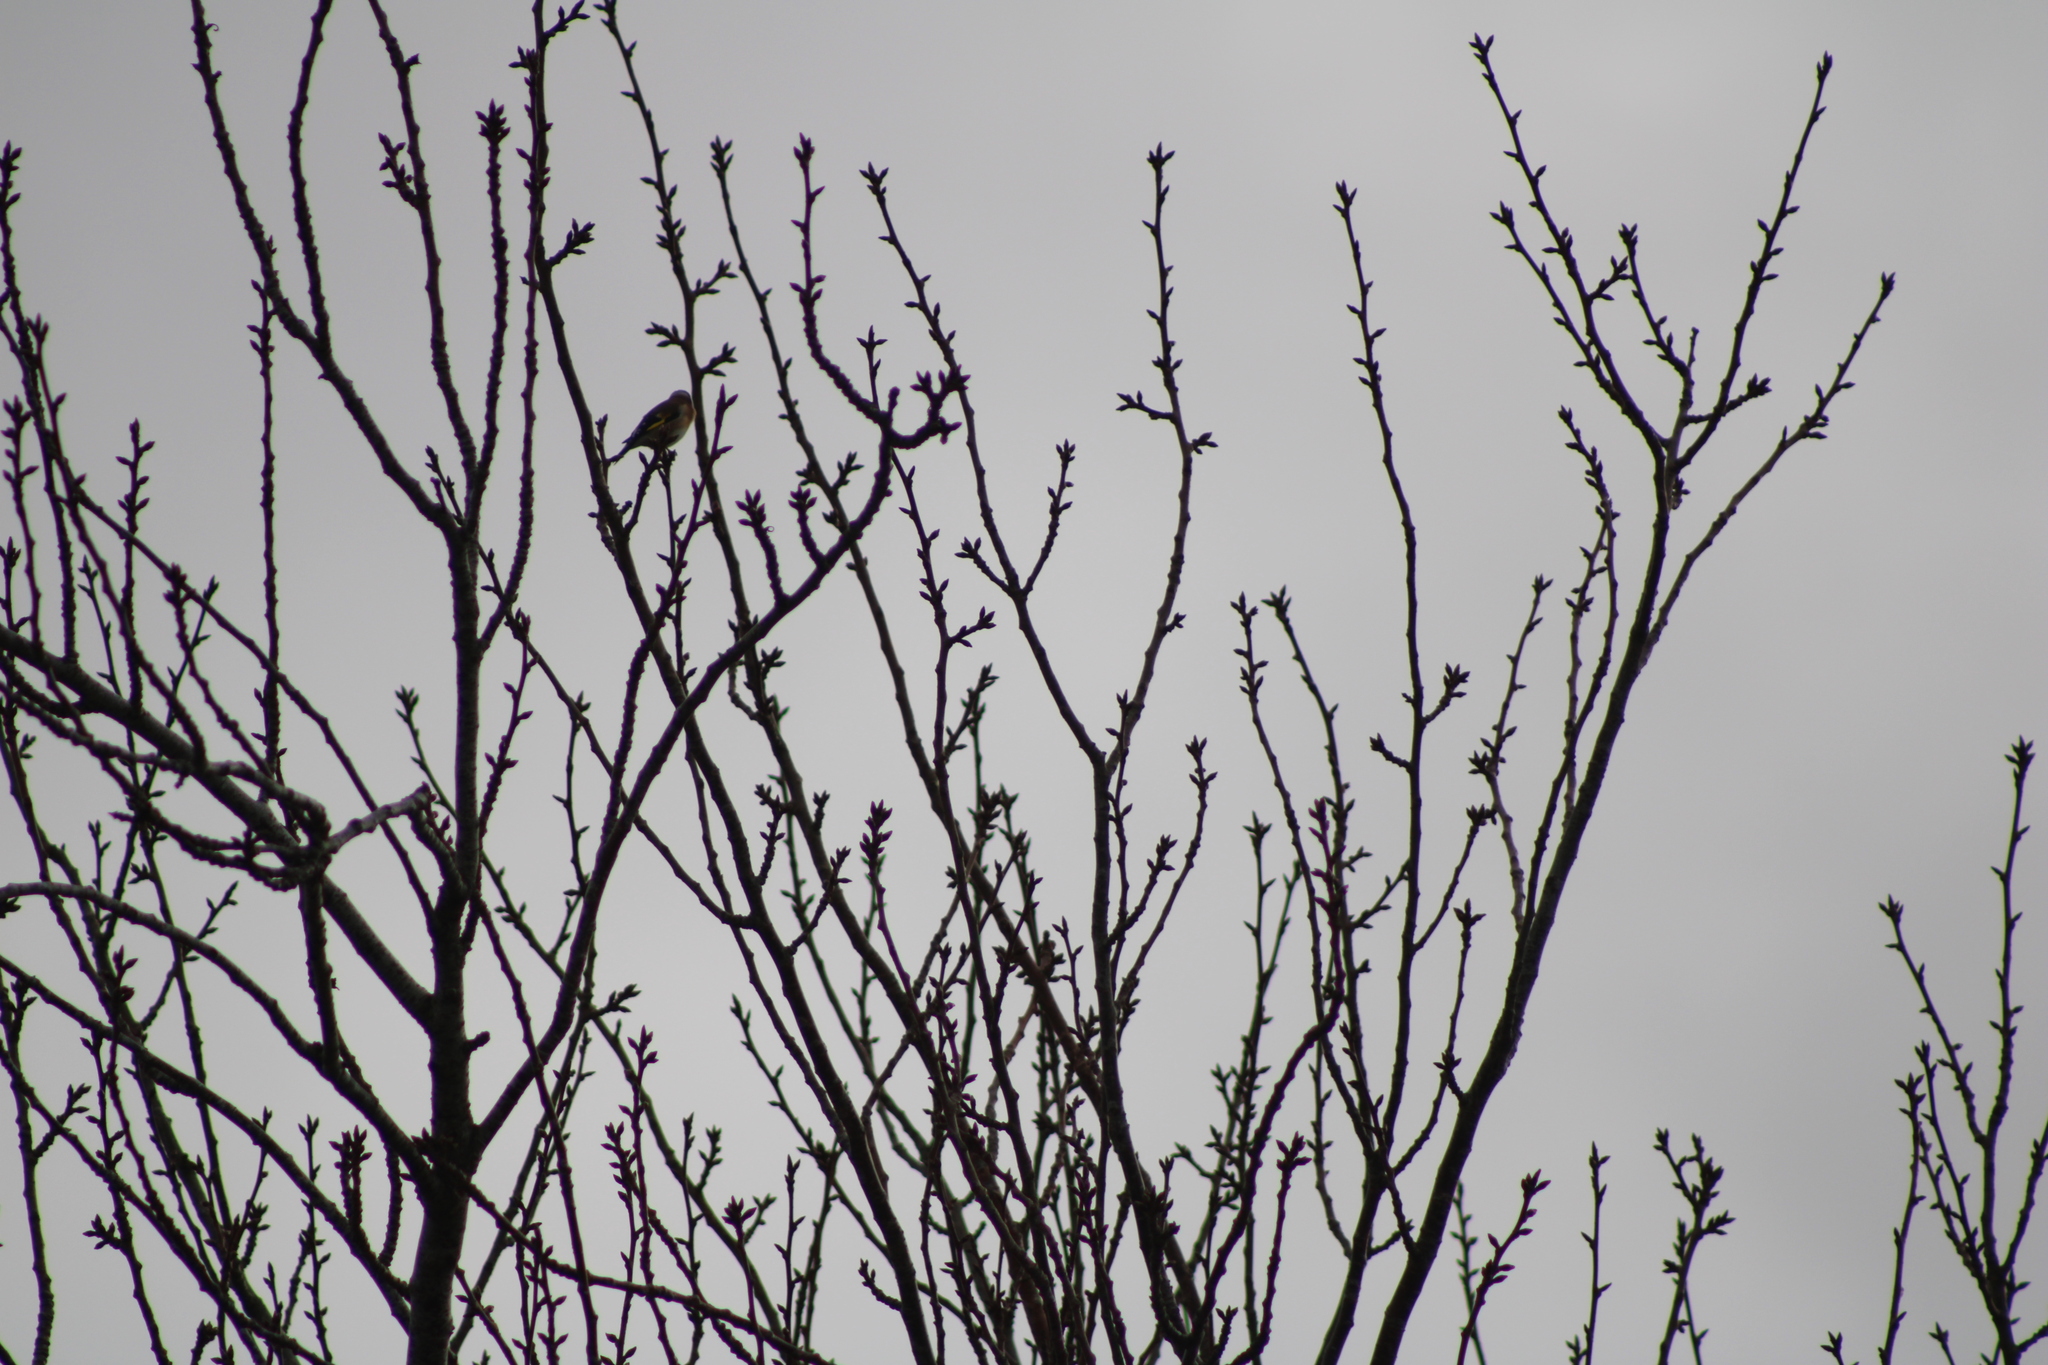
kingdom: Animalia
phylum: Chordata
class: Aves
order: Passeriformes
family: Fringillidae
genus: Carduelis
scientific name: Carduelis carduelis
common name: European goldfinch
